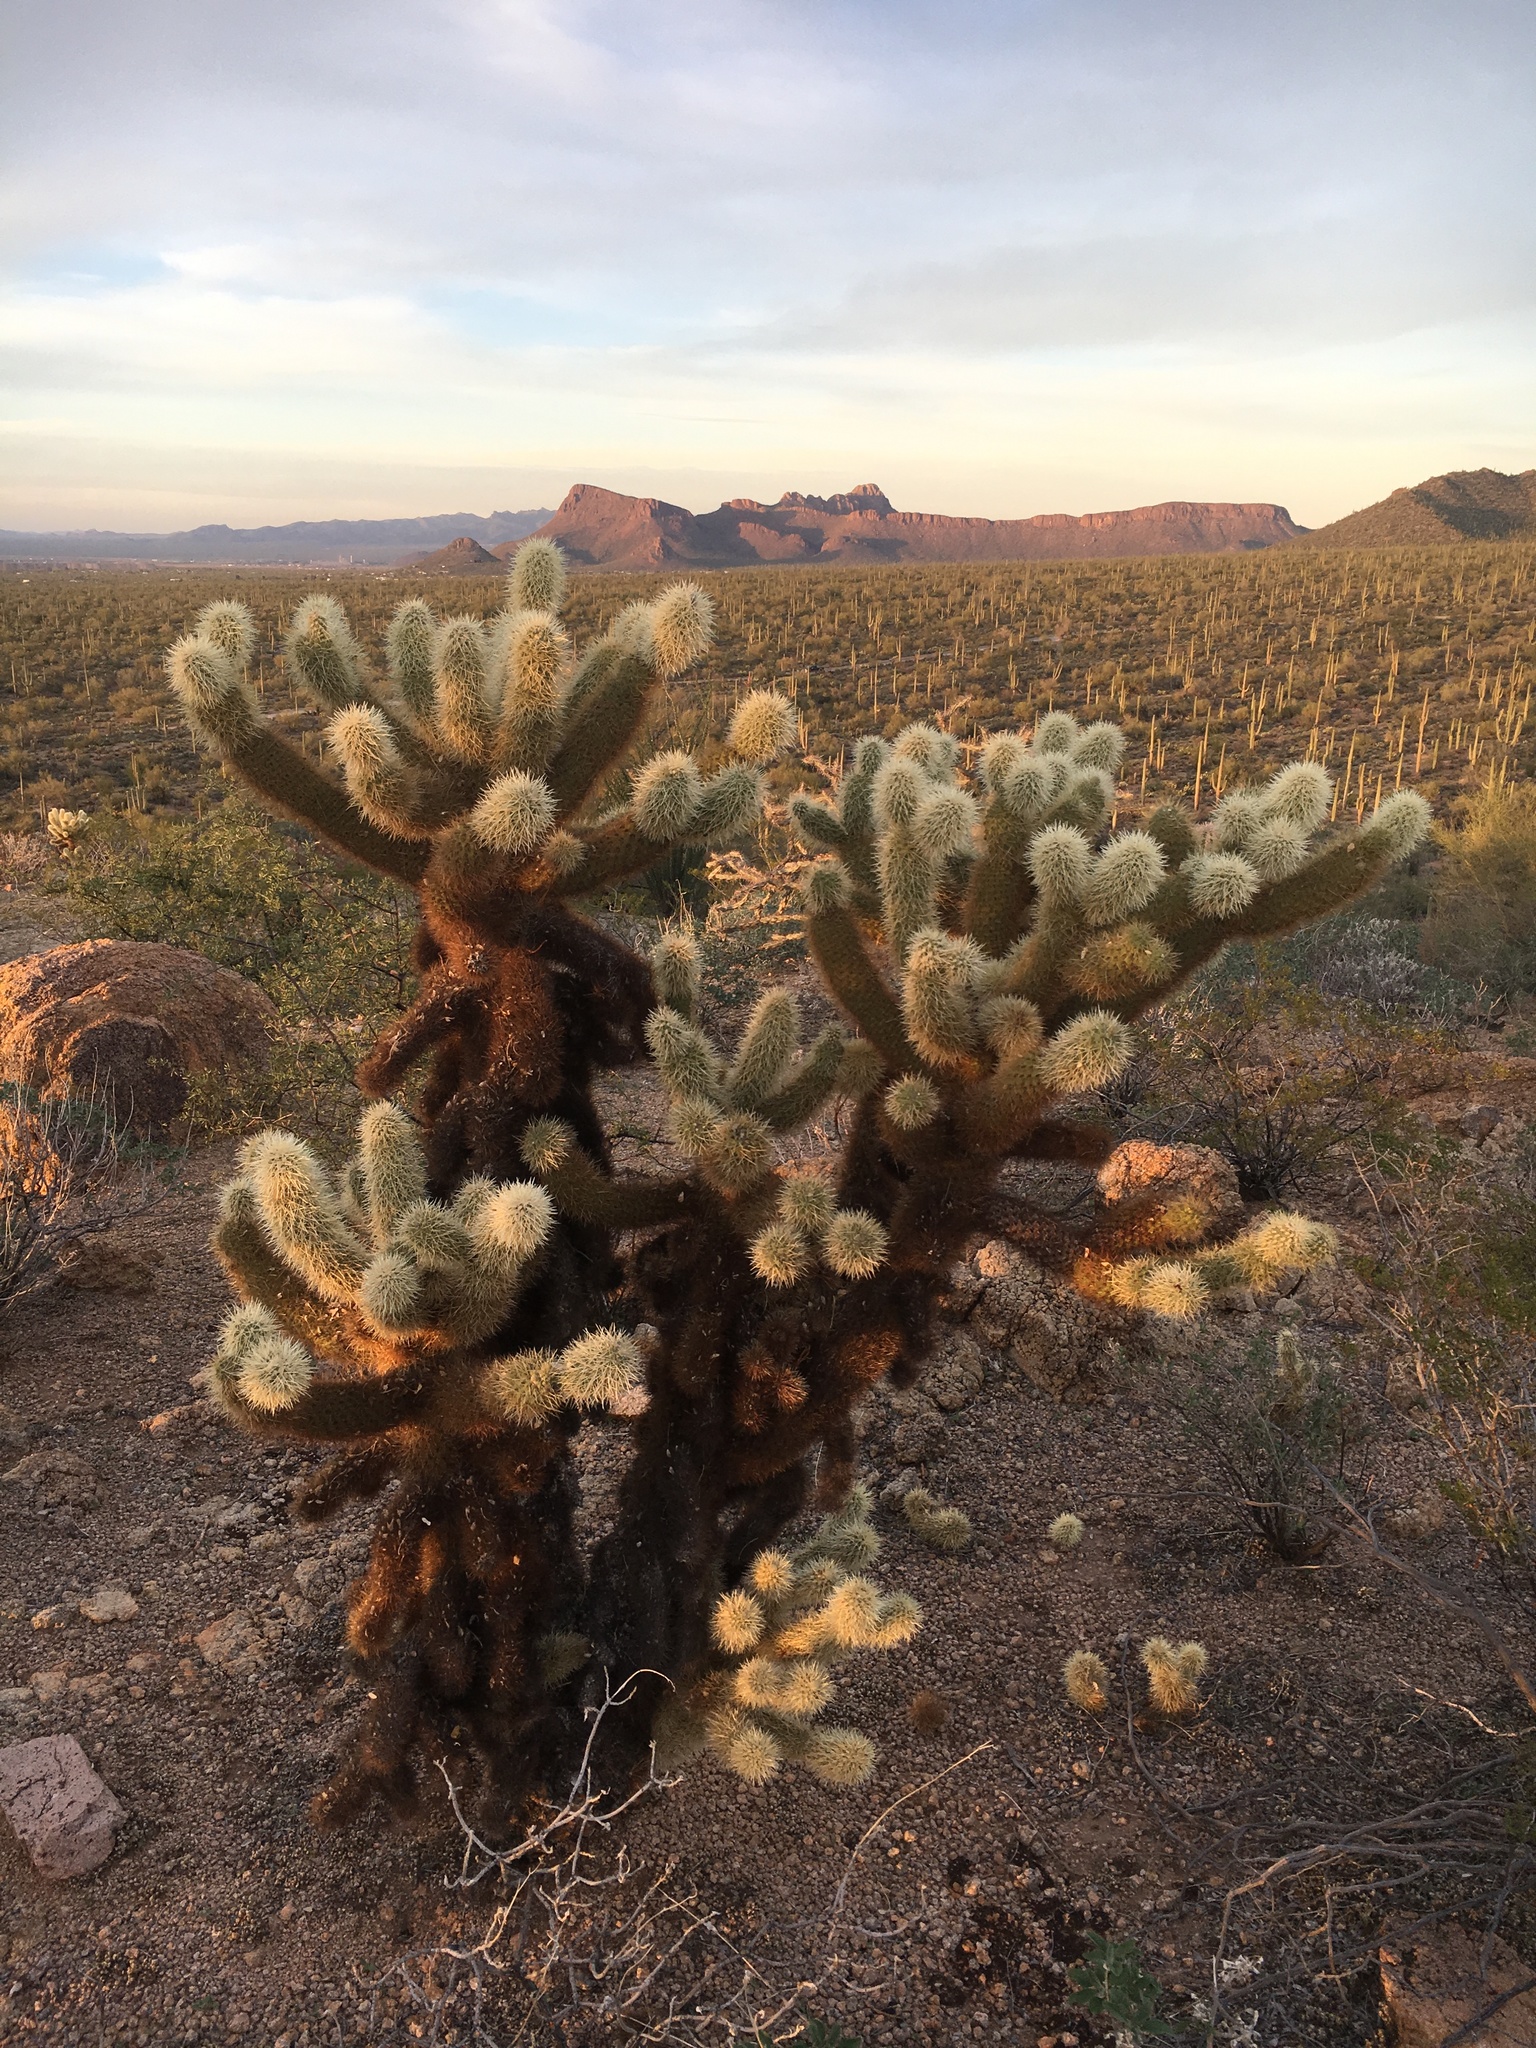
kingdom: Plantae
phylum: Tracheophyta
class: Magnoliopsida
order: Caryophyllales
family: Cactaceae
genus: Cylindropuntia
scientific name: Cylindropuntia fosbergii
